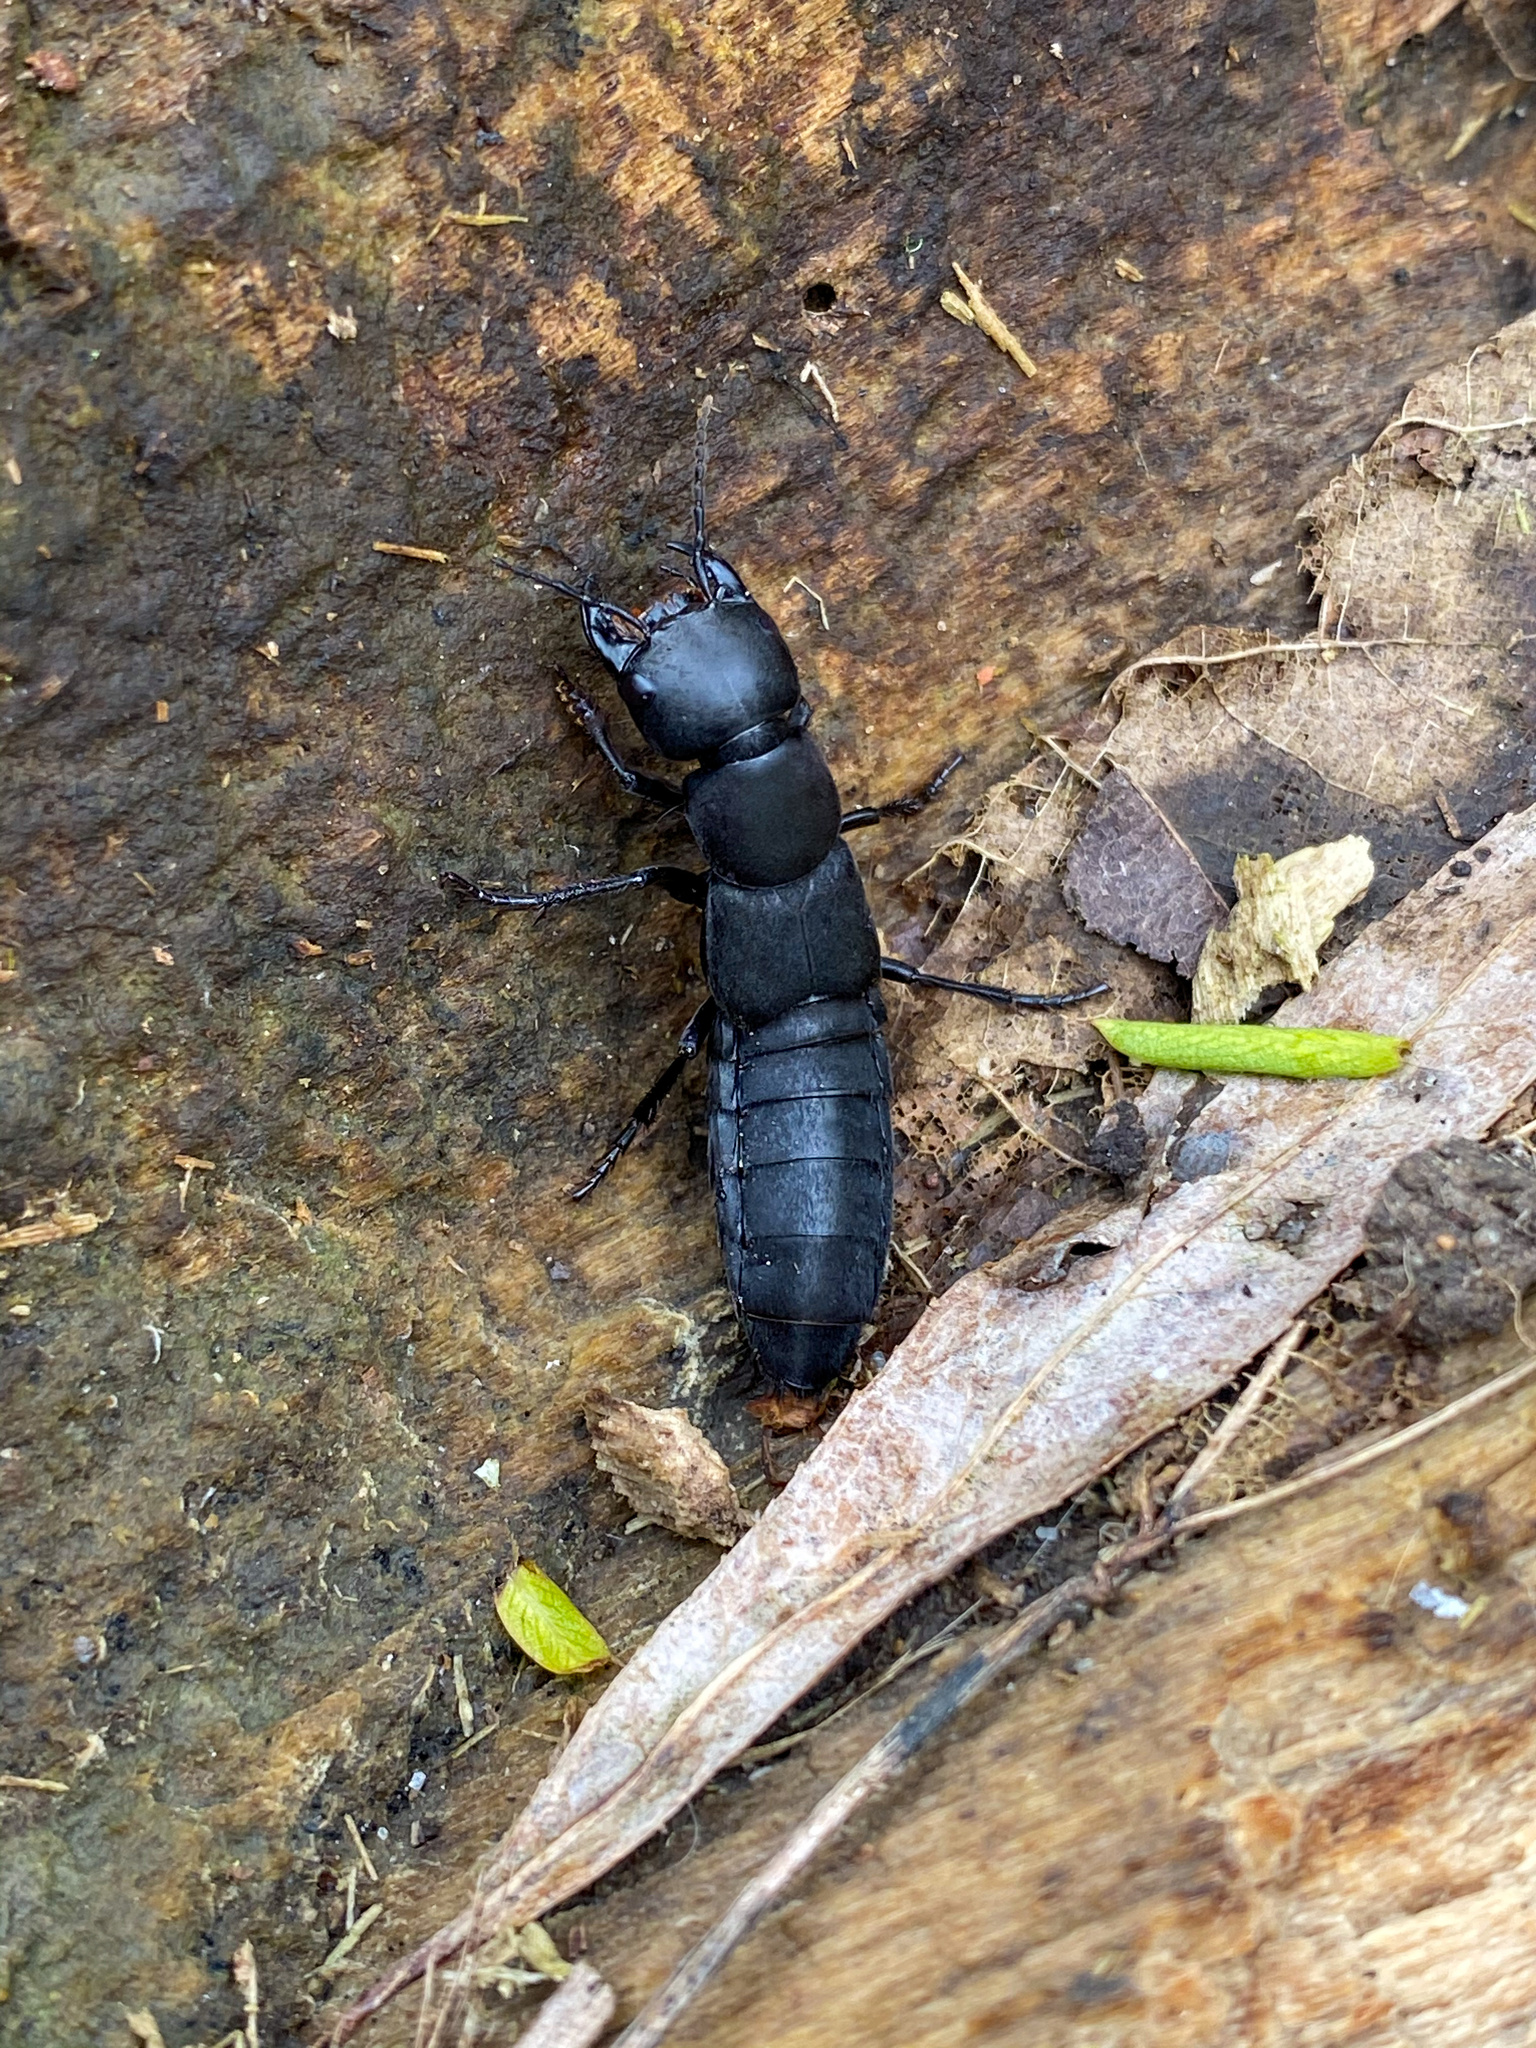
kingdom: Animalia
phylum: Arthropoda
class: Insecta
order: Coleoptera
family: Staphylinidae
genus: Ocypus
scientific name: Ocypus olens
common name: Devil's coach-horse
